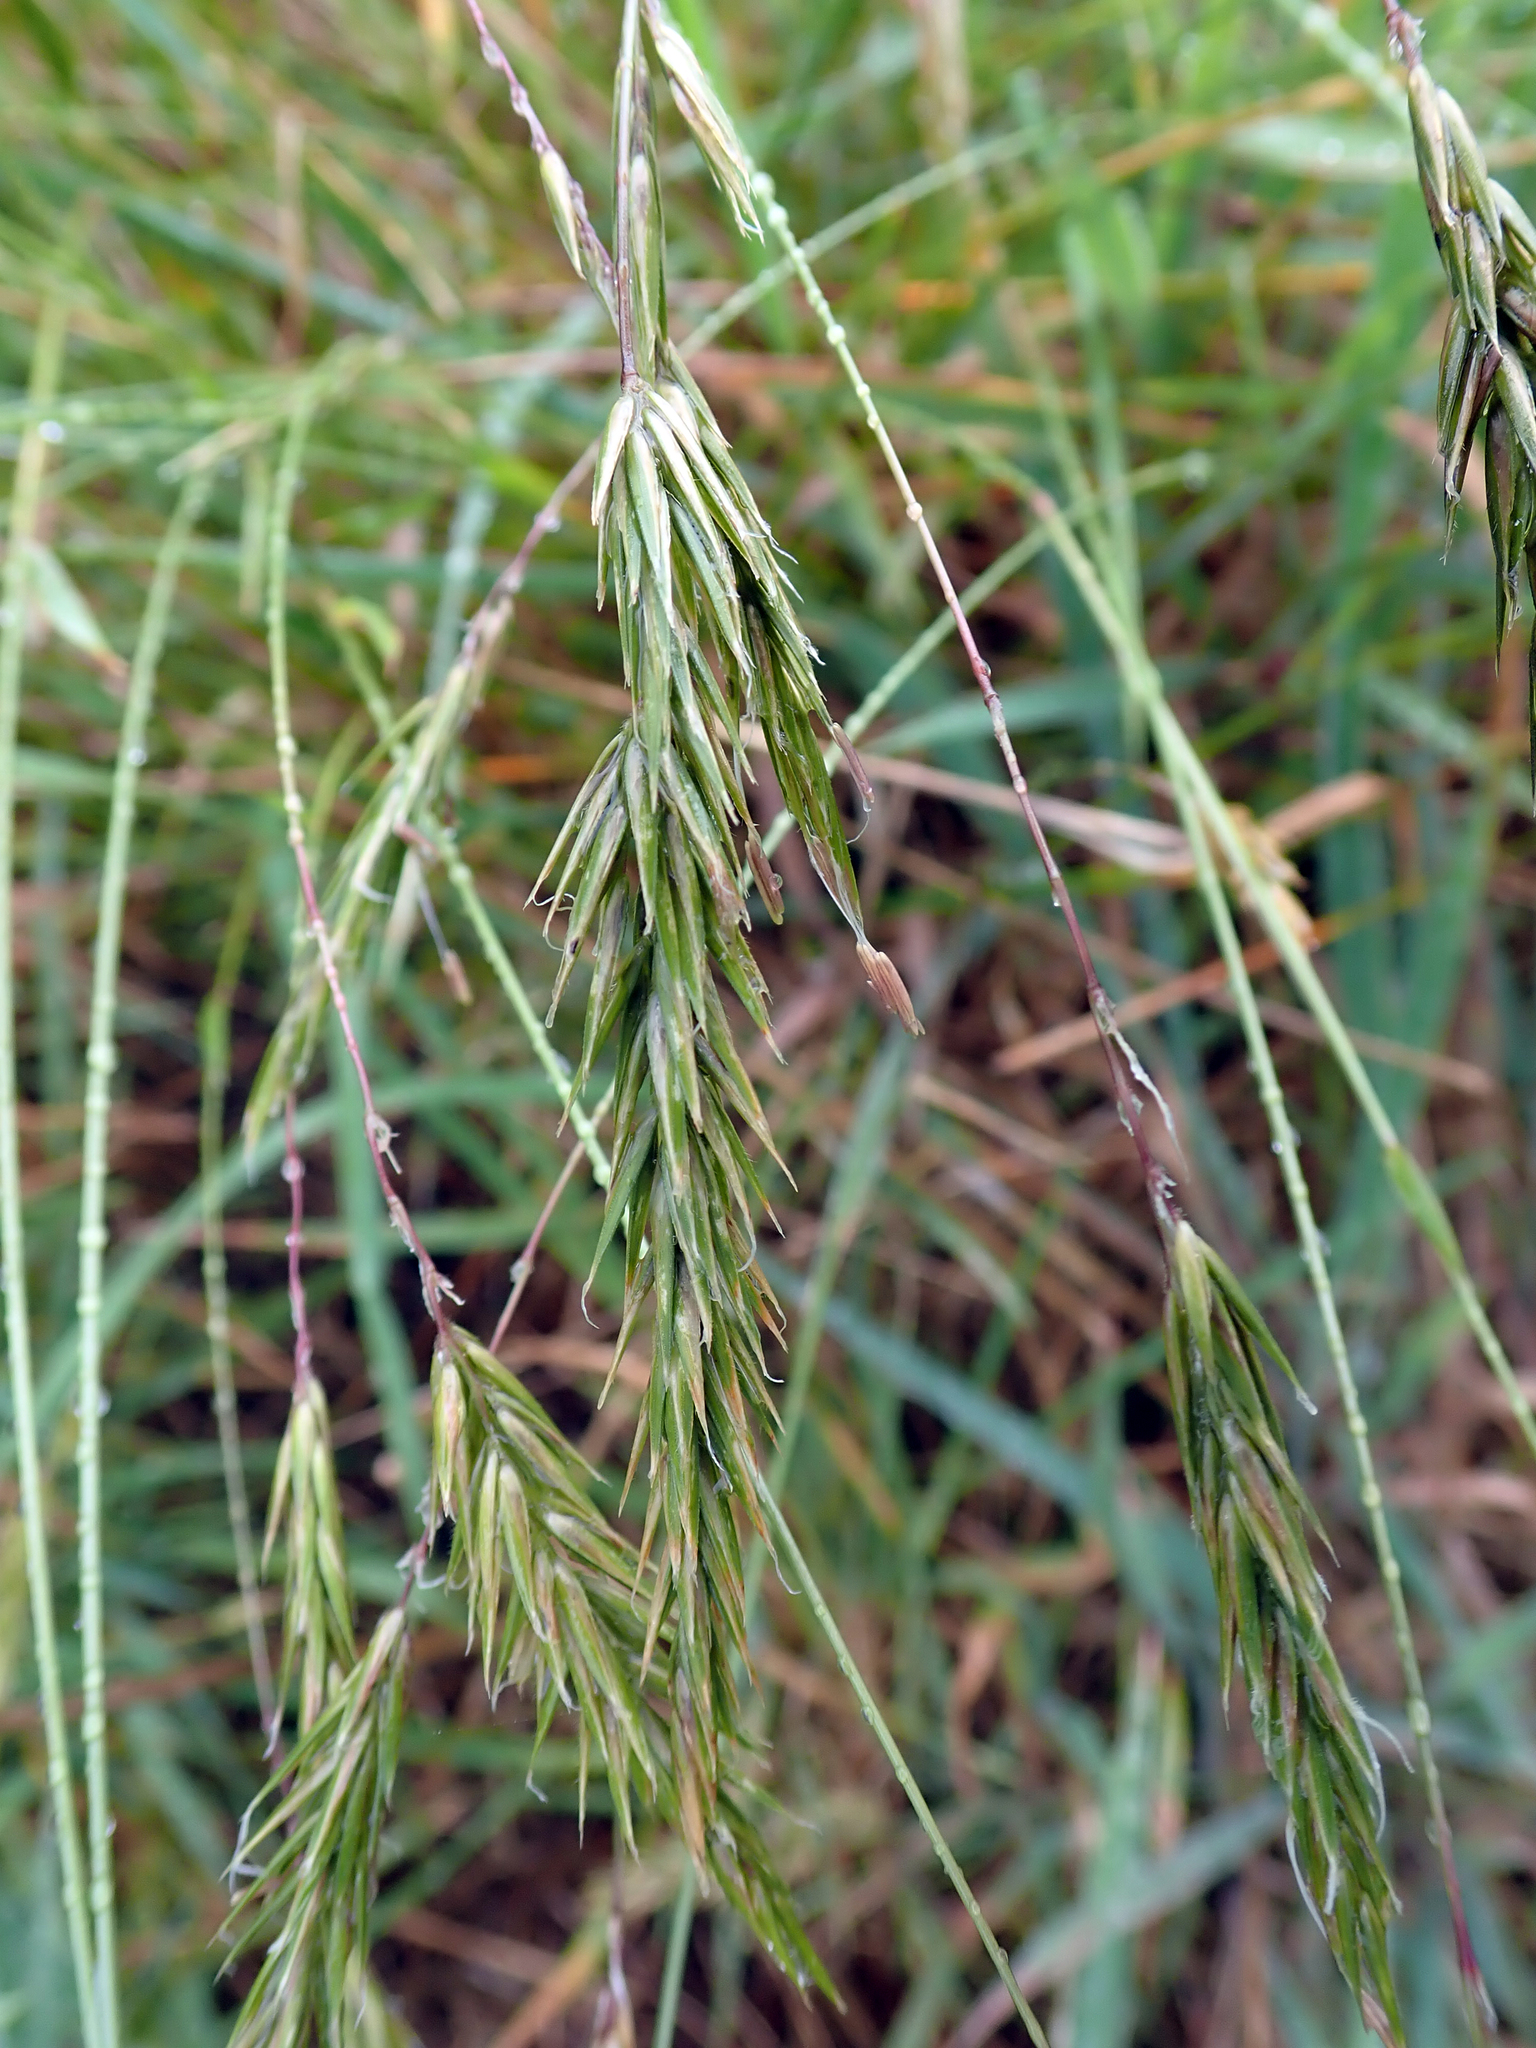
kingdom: Plantae
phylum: Tracheophyta
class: Liliopsida
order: Poales
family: Poaceae
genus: Anthoxanthum
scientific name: Anthoxanthum odoratum
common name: Sweet vernalgrass
